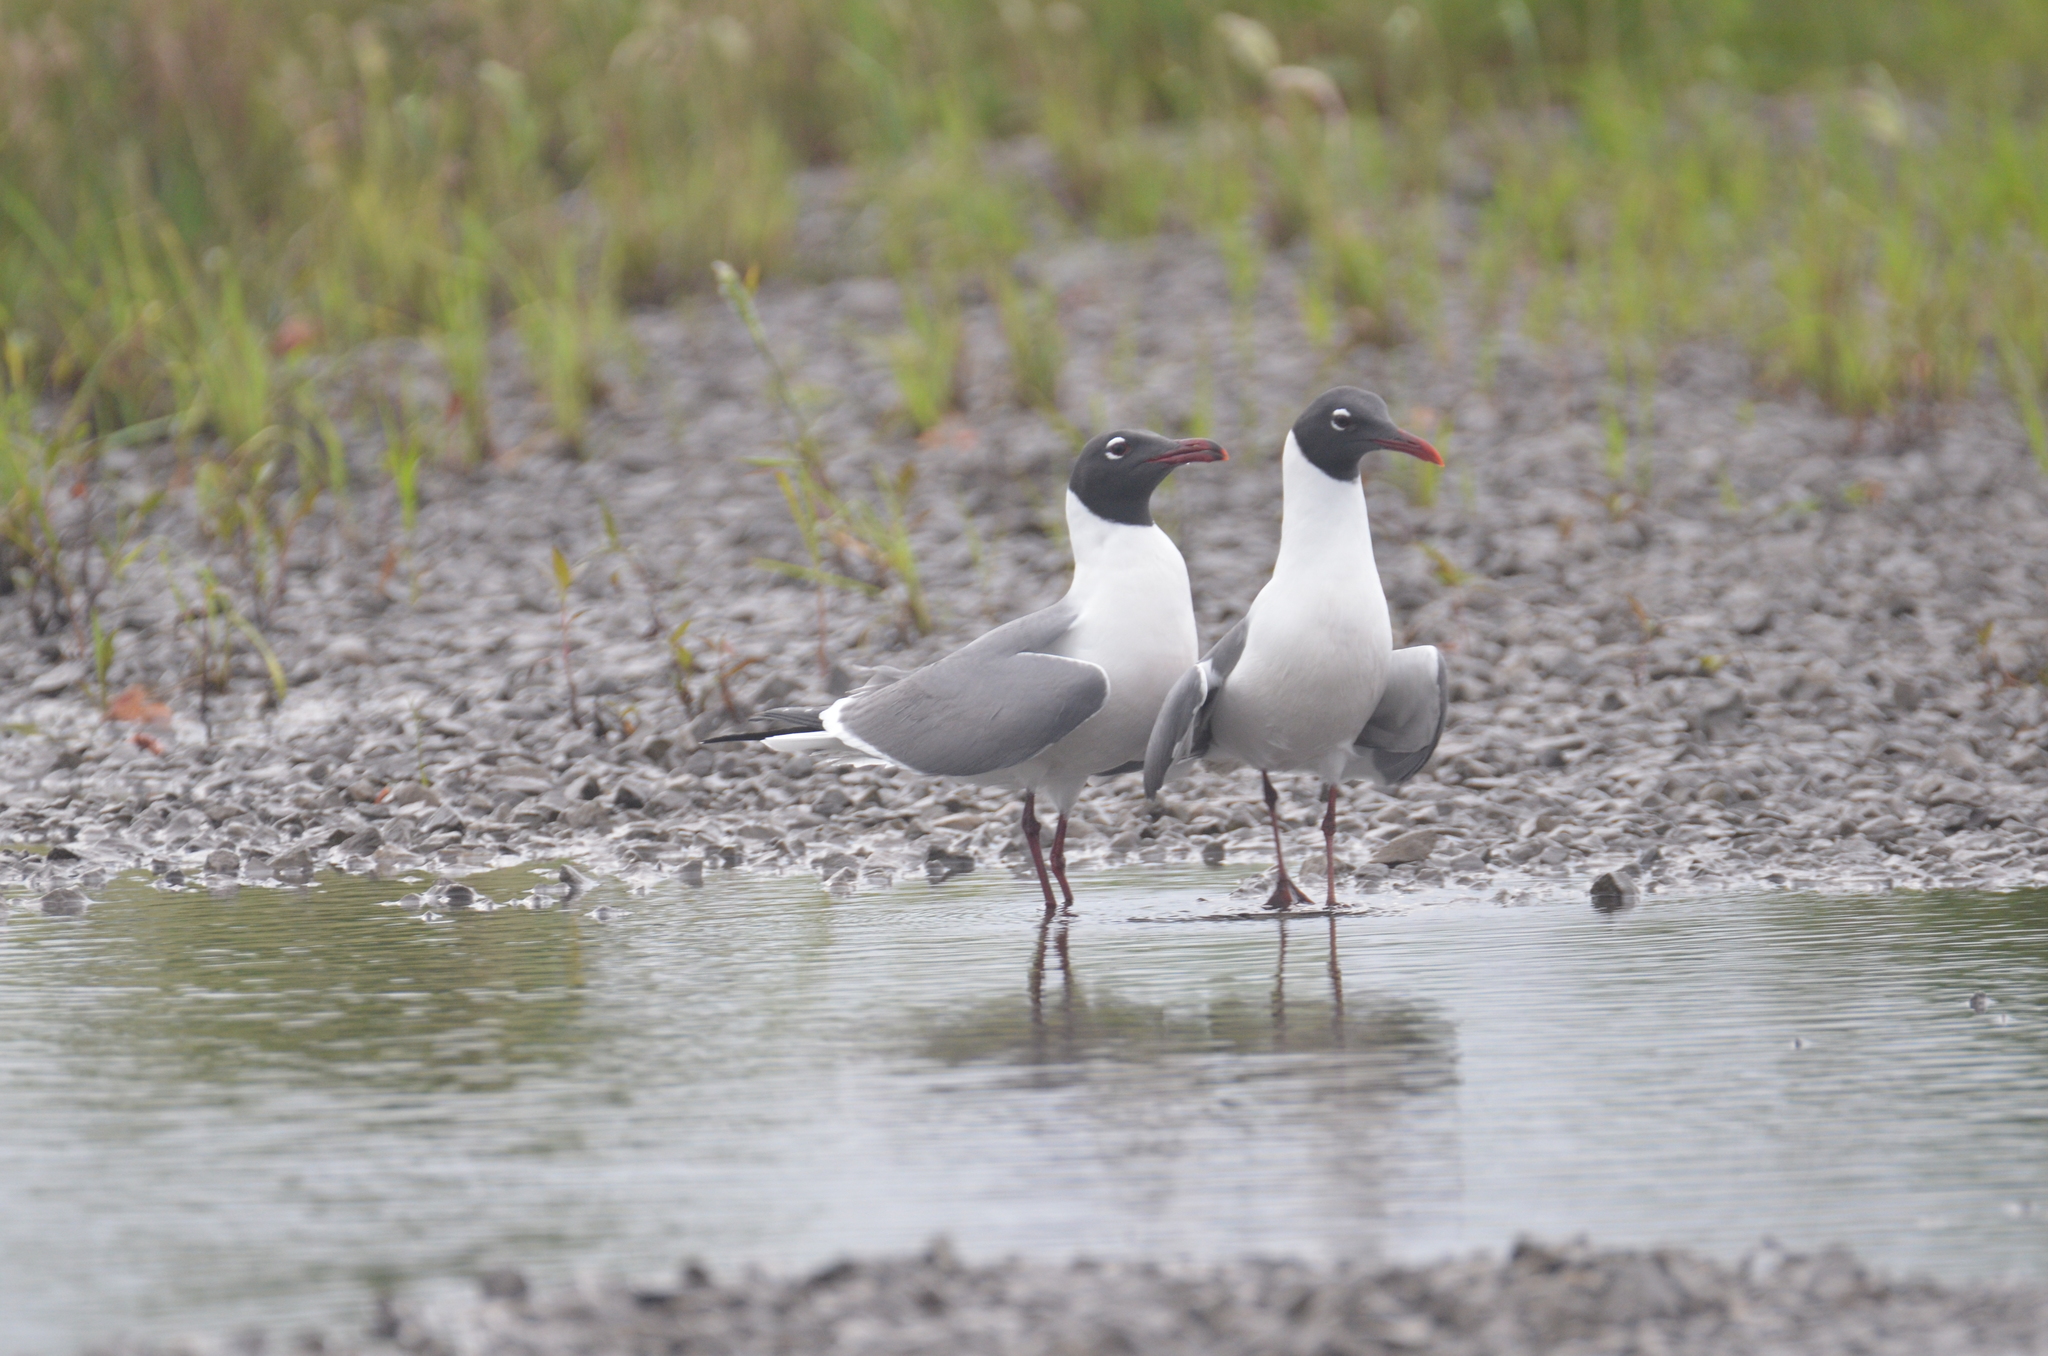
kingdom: Animalia
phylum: Chordata
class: Aves
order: Charadriiformes
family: Laridae
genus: Leucophaeus
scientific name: Leucophaeus atricilla
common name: Laughing gull
